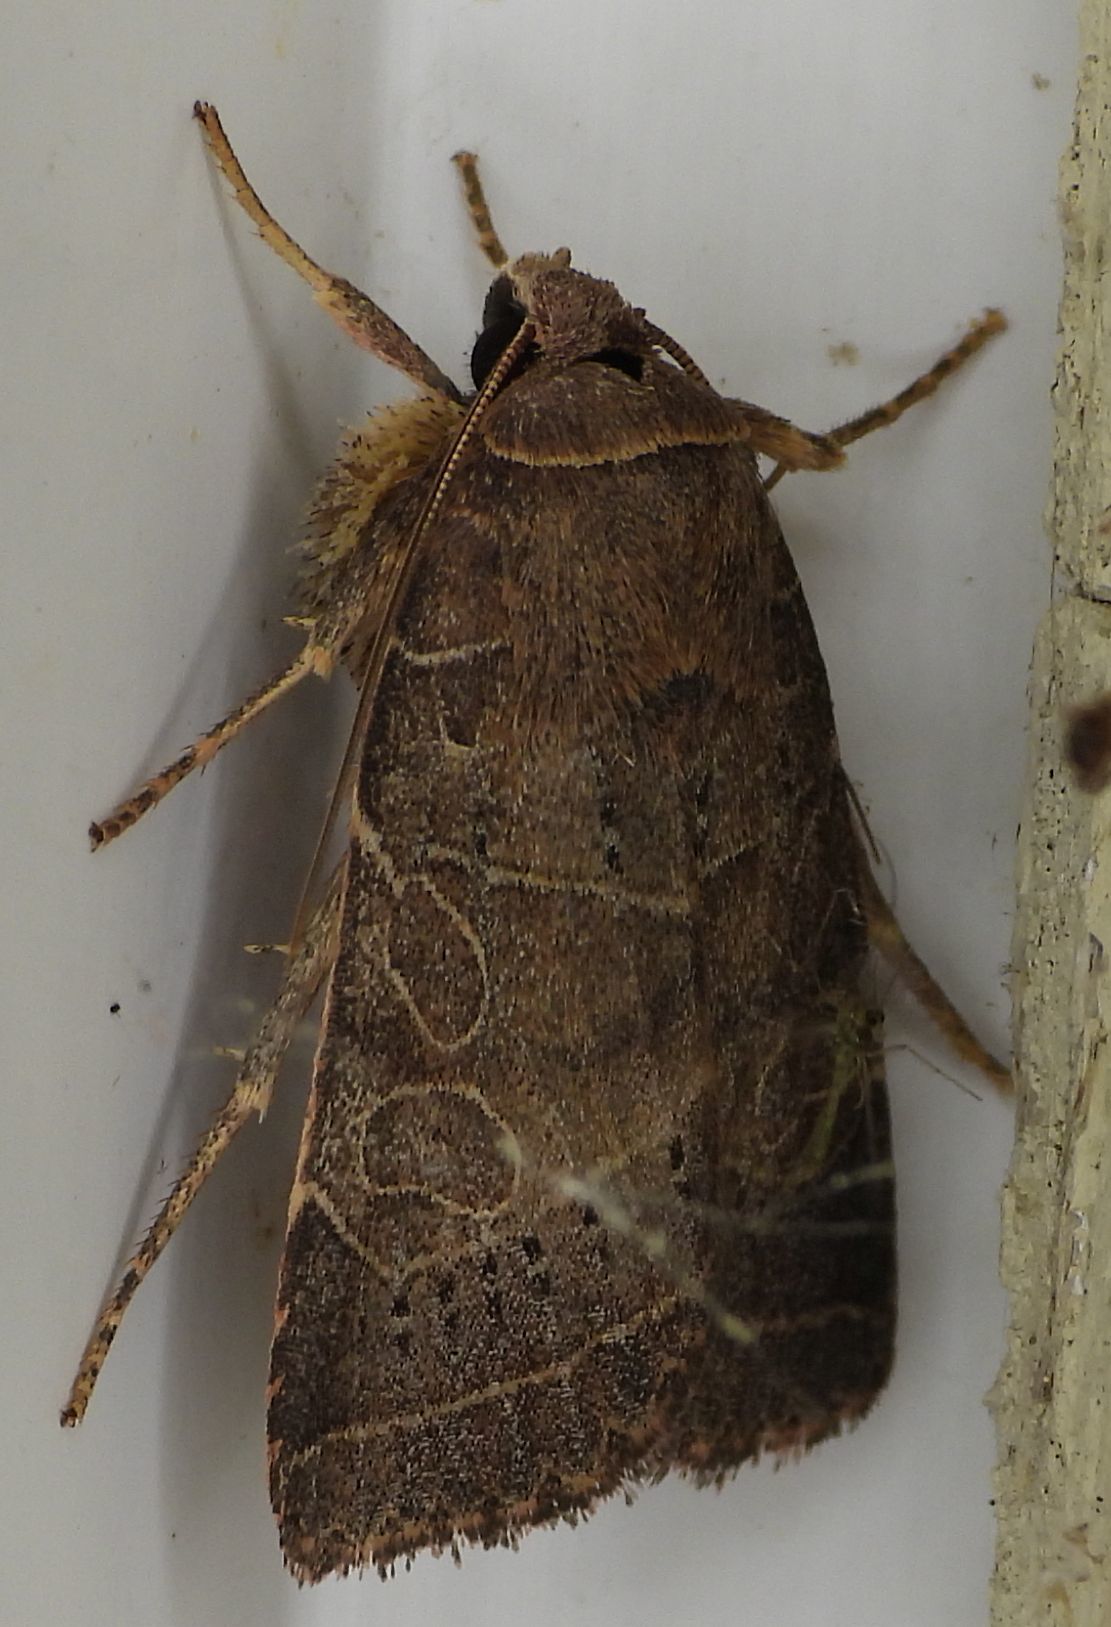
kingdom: Animalia
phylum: Arthropoda
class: Insecta
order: Lepidoptera
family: Noctuidae
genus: Orthodes
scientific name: Orthodes majuscula
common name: Rustic quaker
